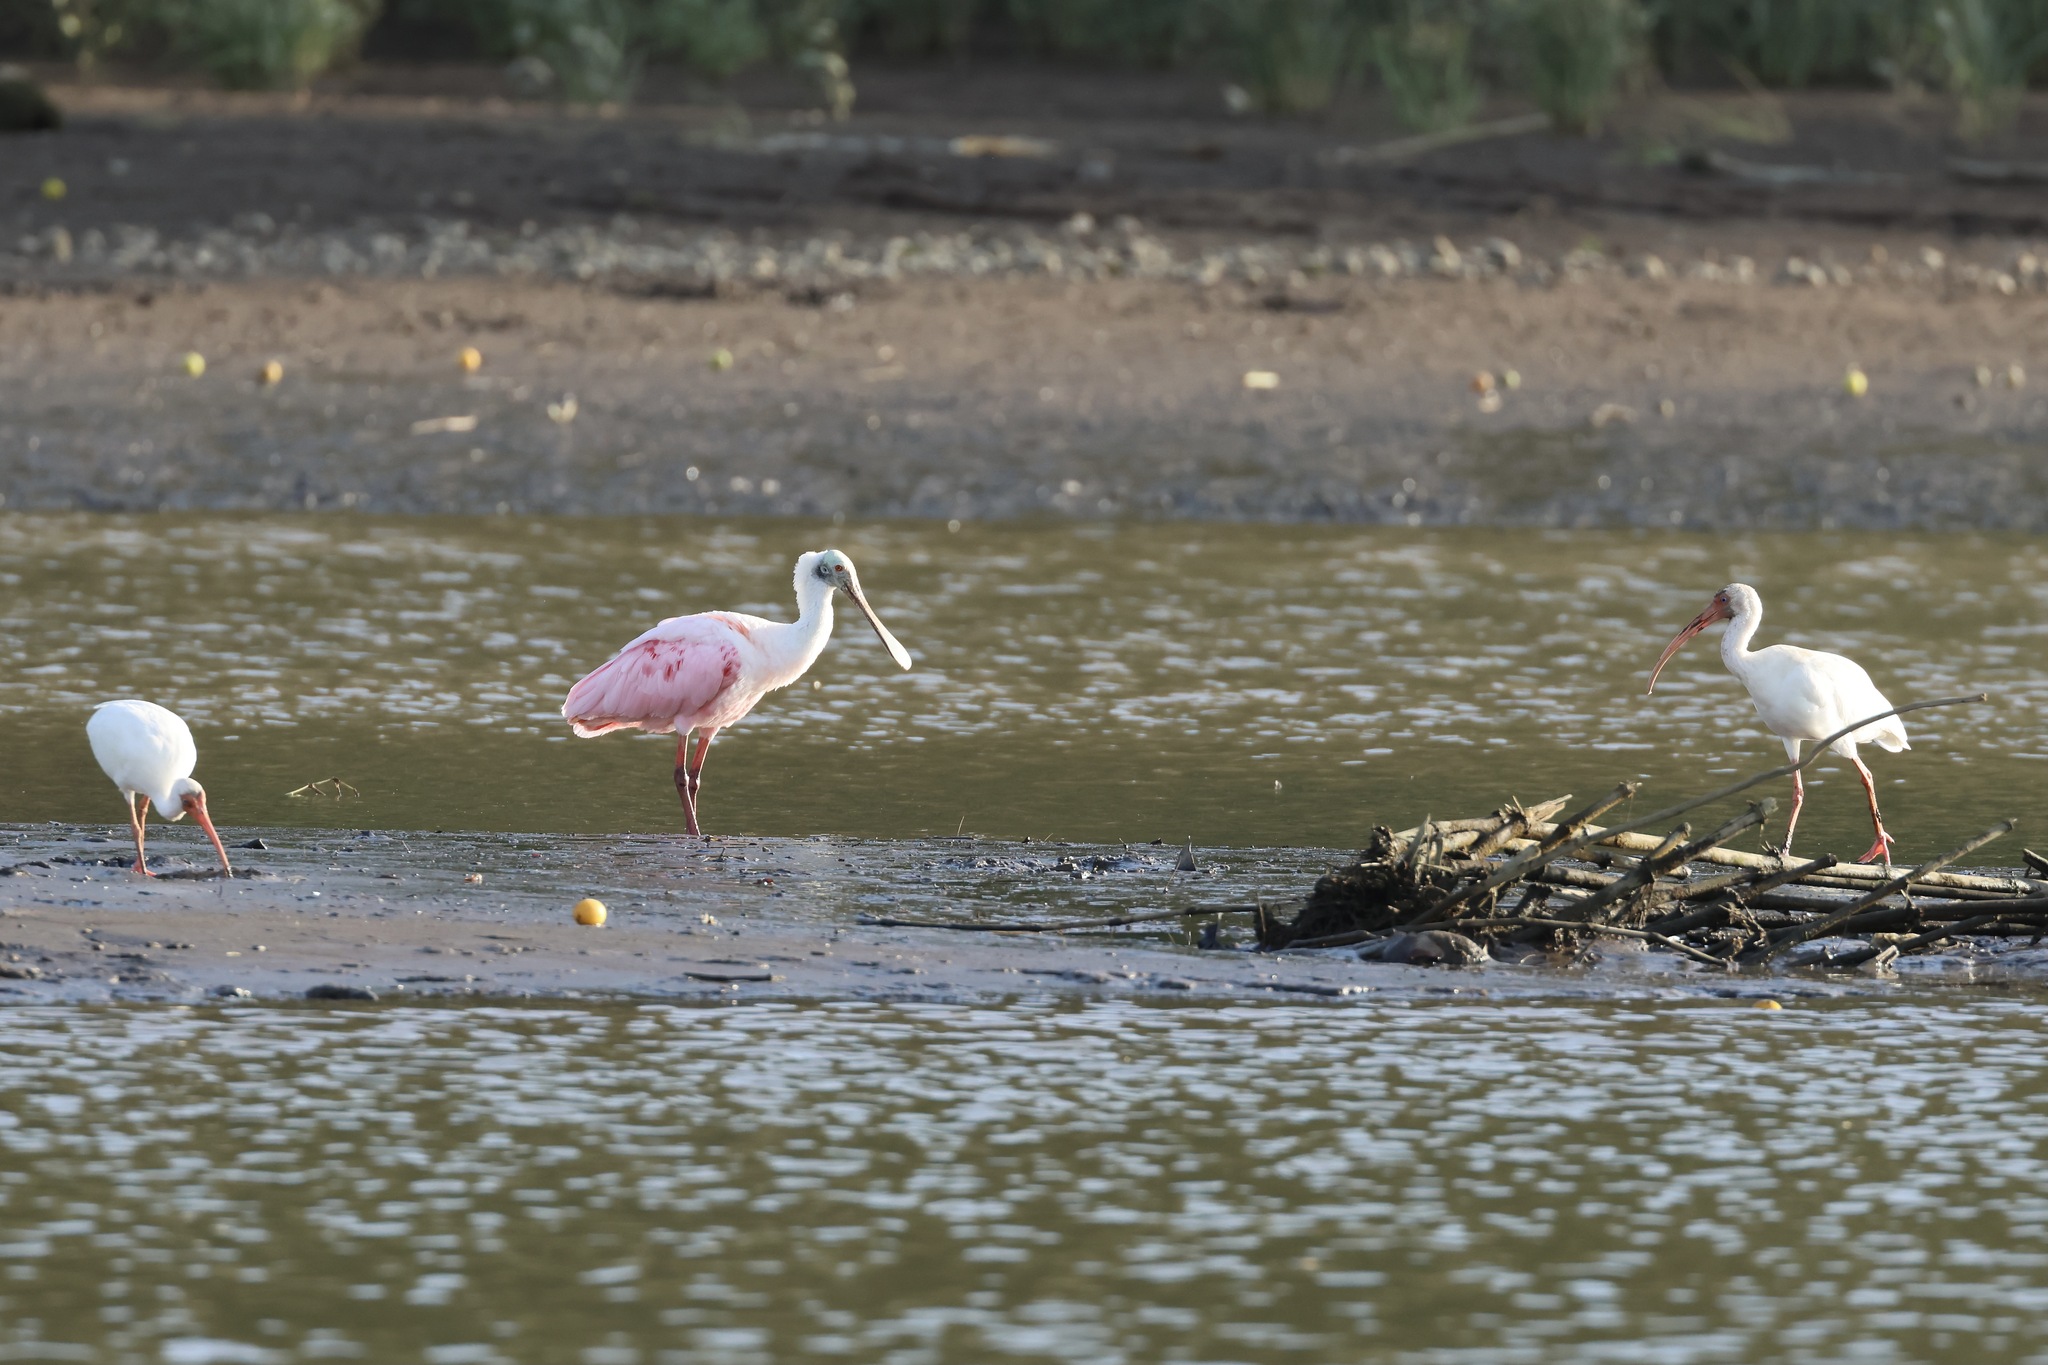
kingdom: Animalia
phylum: Chordata
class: Aves
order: Pelecaniformes
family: Threskiornithidae
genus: Platalea
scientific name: Platalea ajaja
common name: Roseate spoonbill
